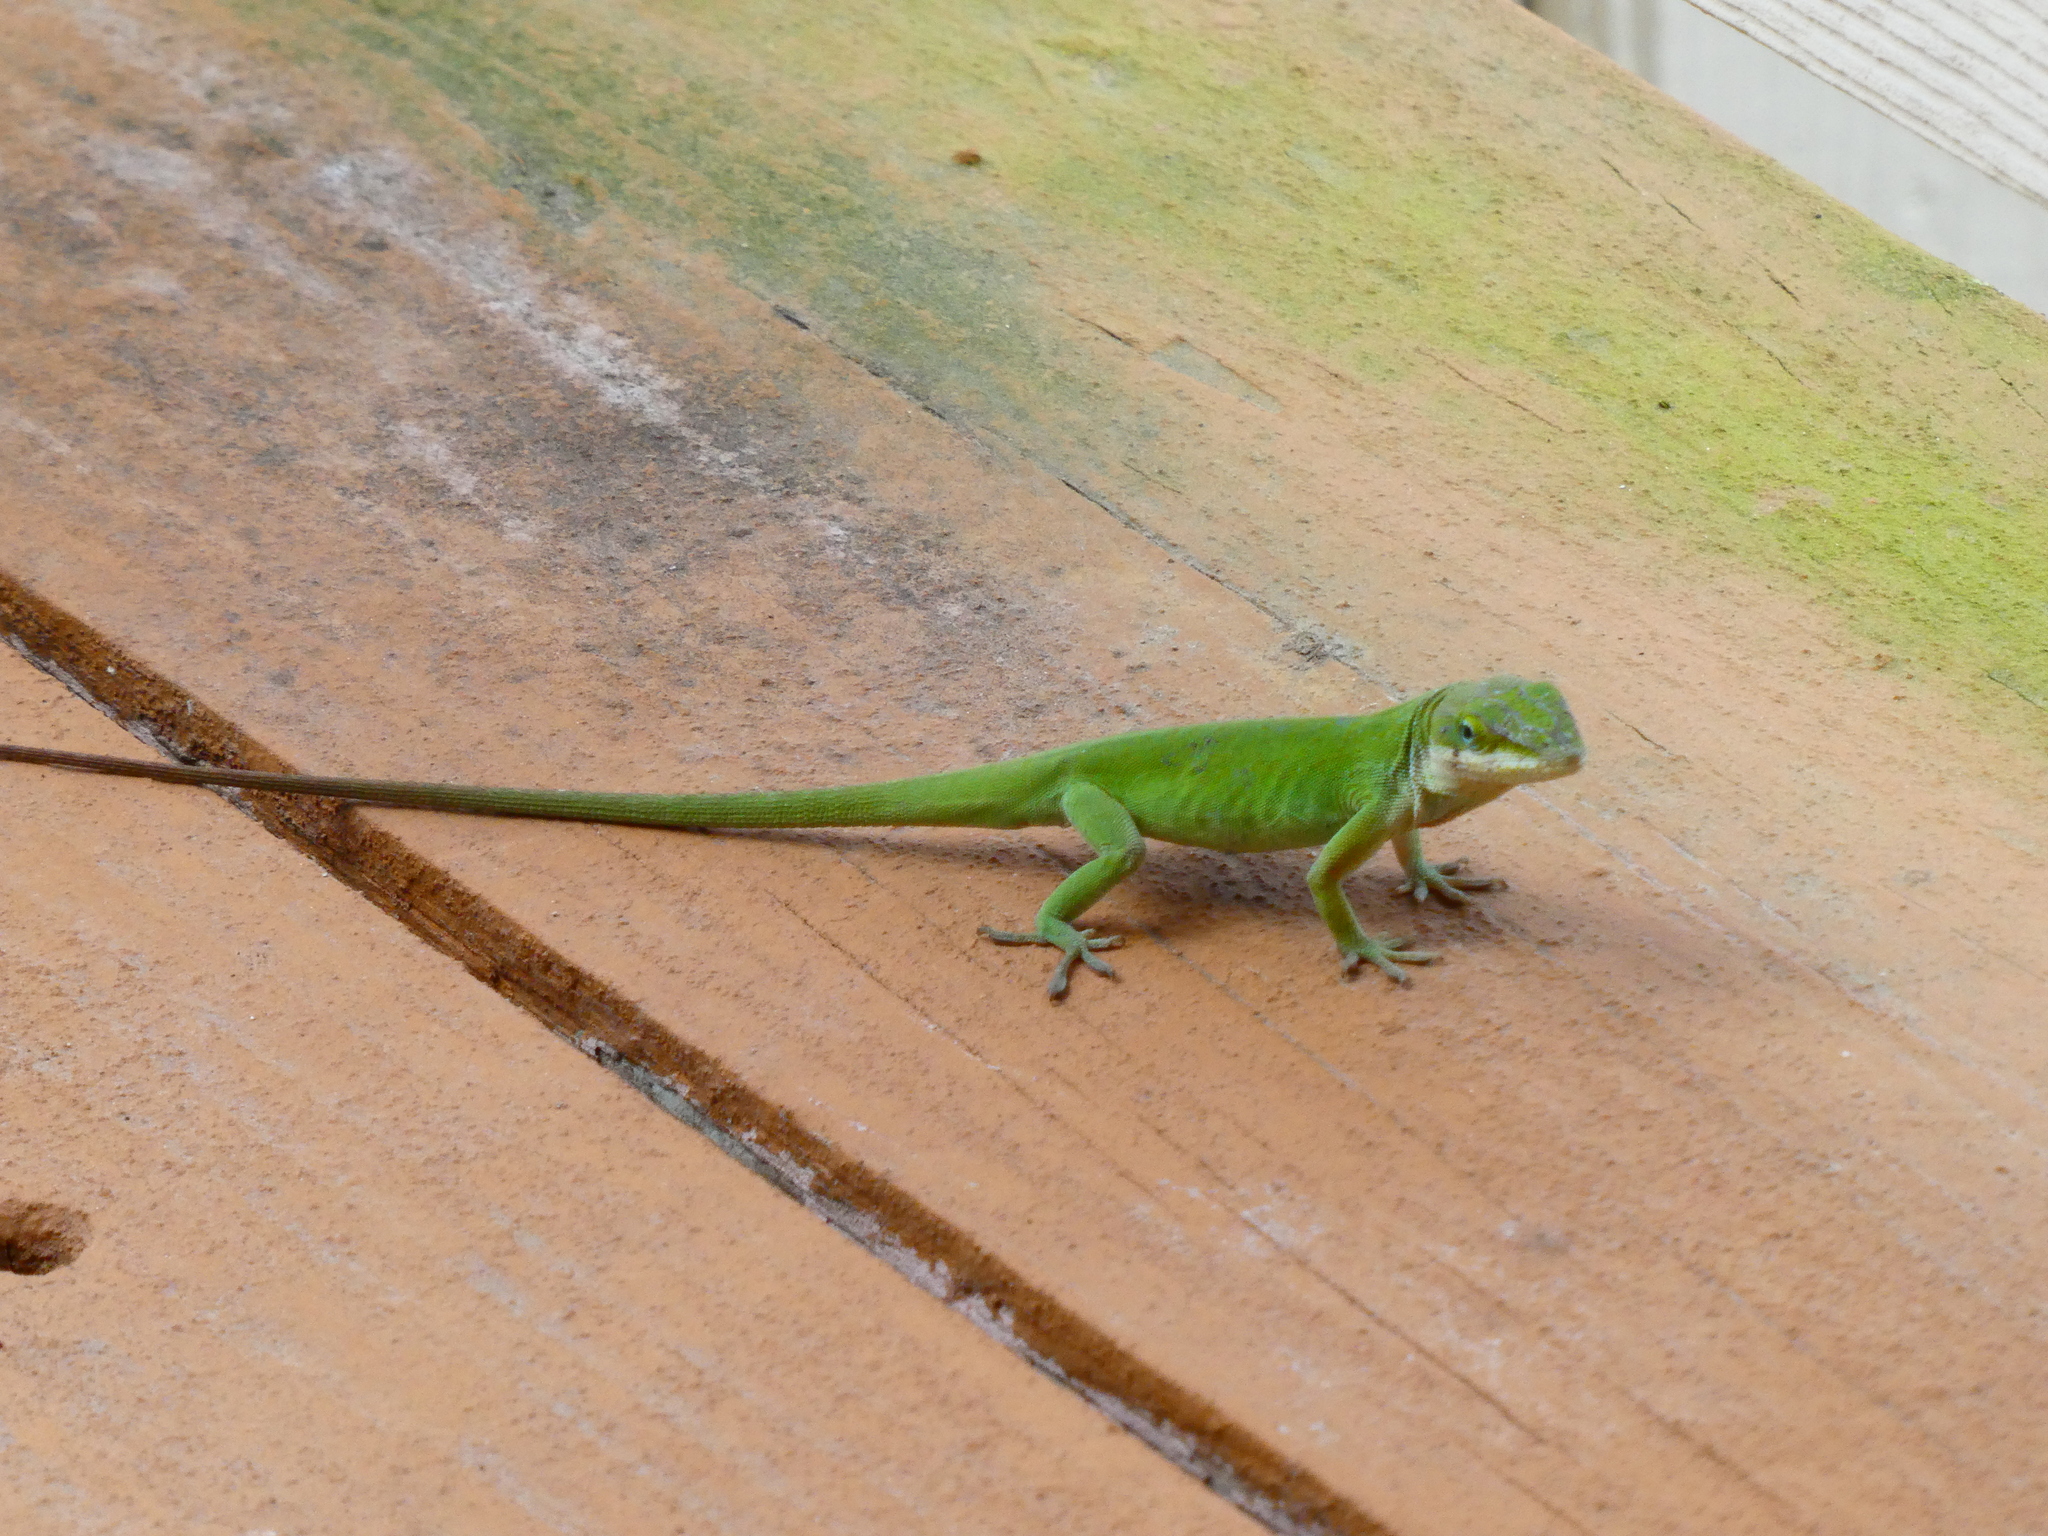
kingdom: Animalia
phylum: Chordata
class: Squamata
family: Dactyloidae
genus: Anolis
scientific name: Anolis carolinensis
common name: Green anole
